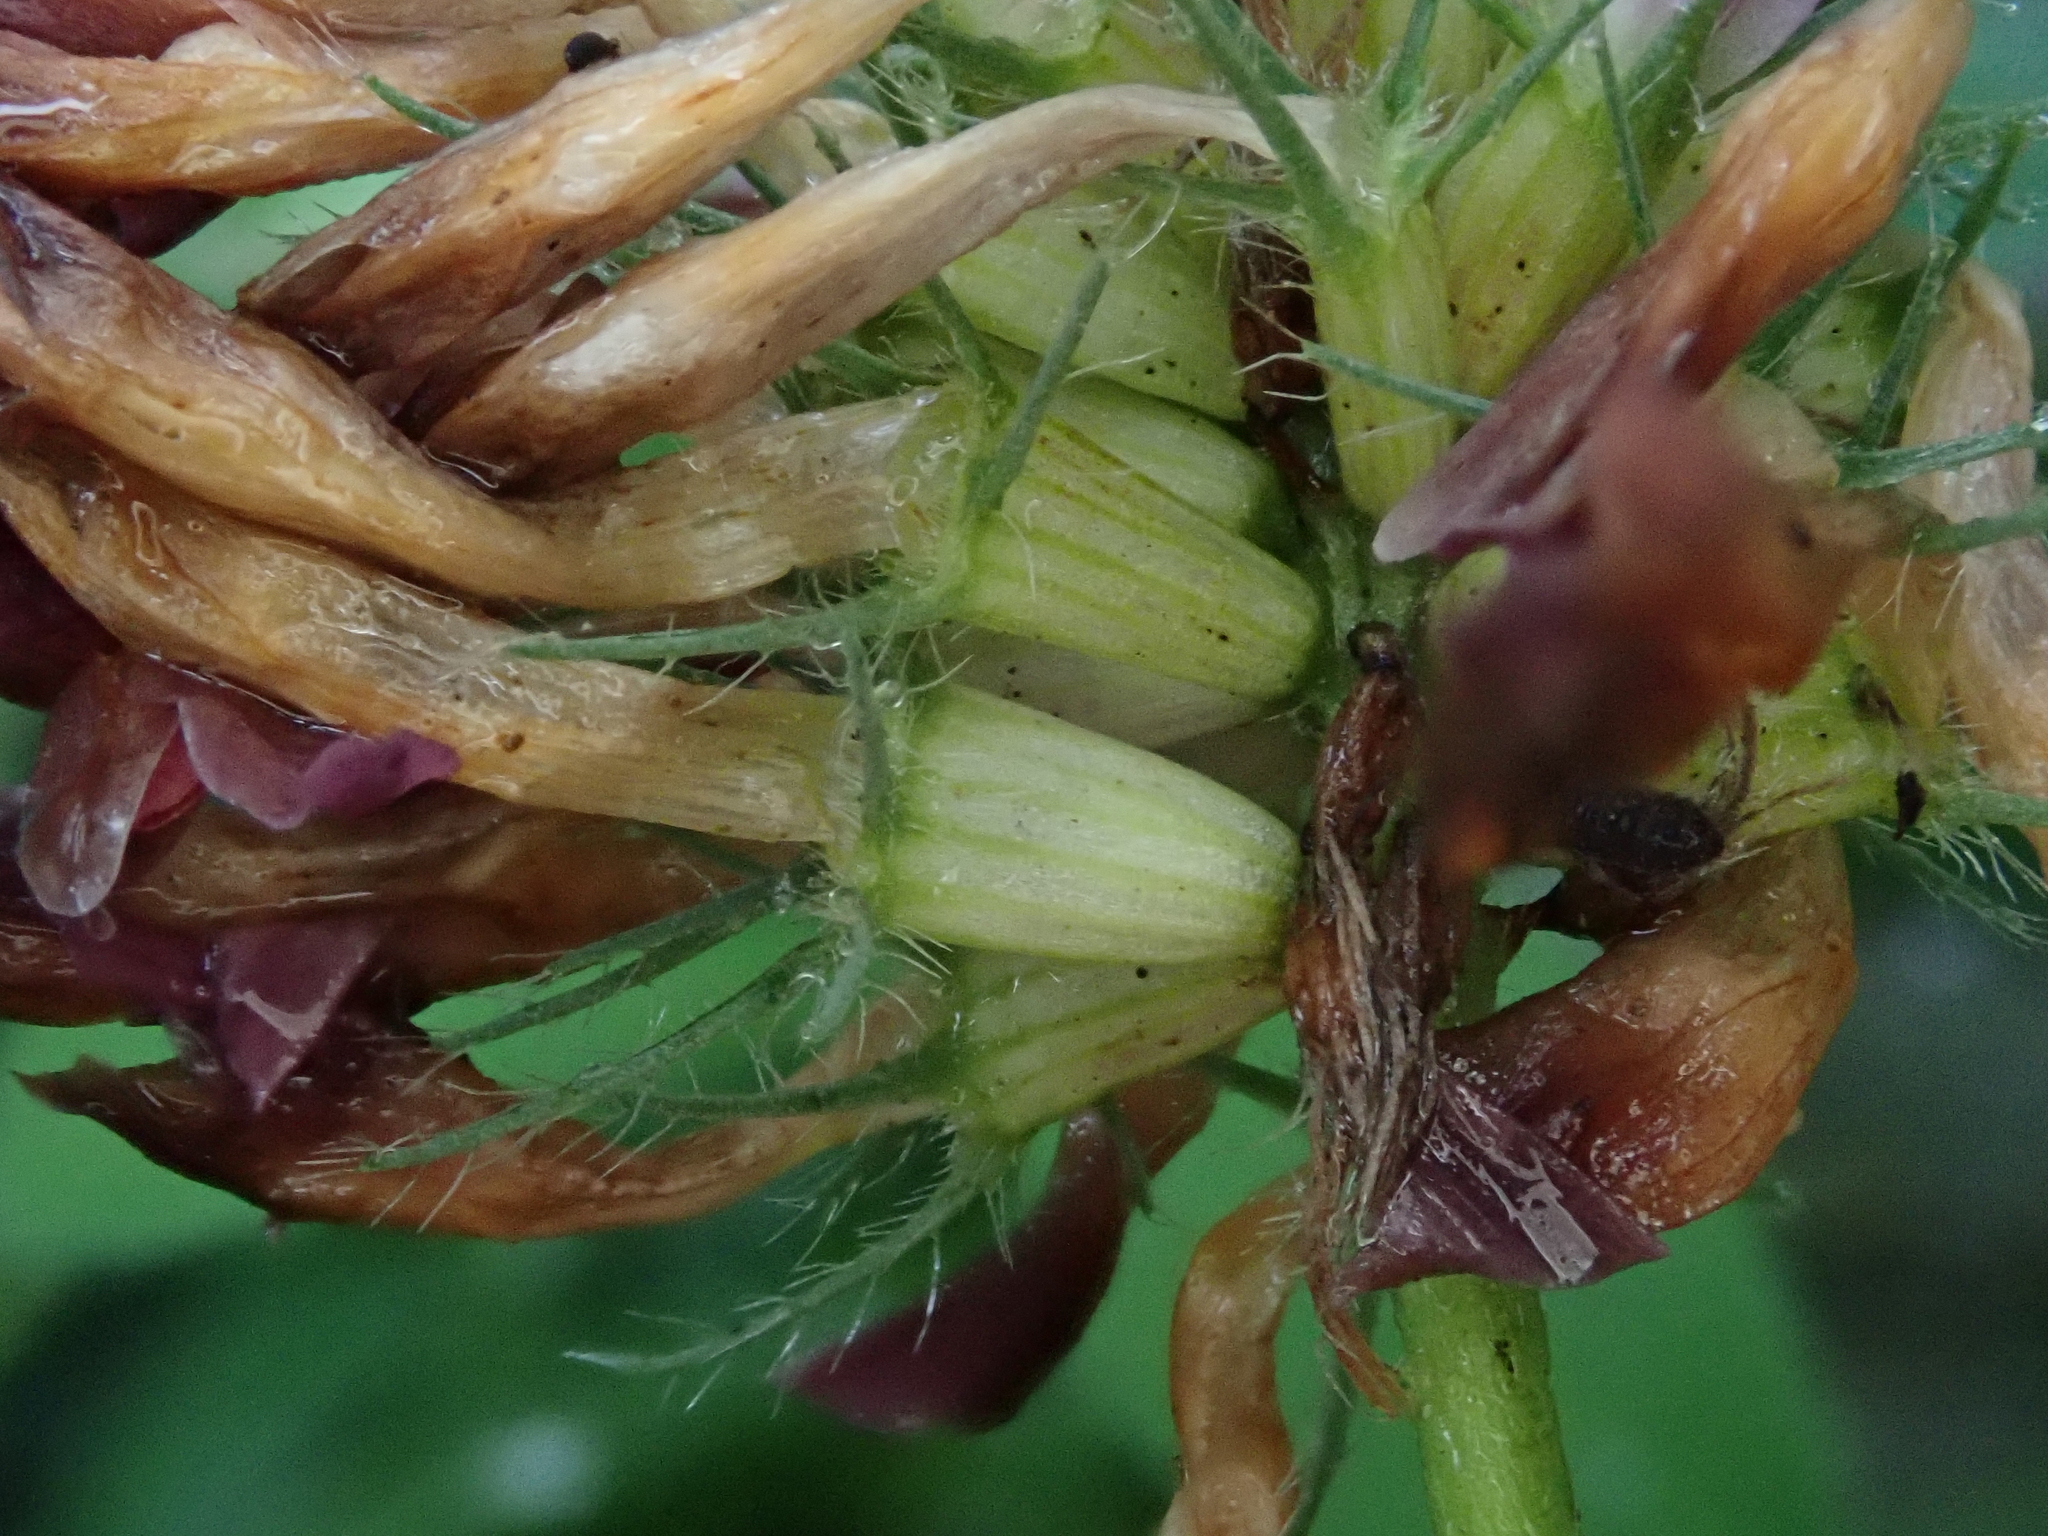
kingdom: Plantae
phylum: Tracheophyta
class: Magnoliopsida
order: Fabales
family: Fabaceae
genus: Trifolium
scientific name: Trifolium medium
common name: Zigzag clover
